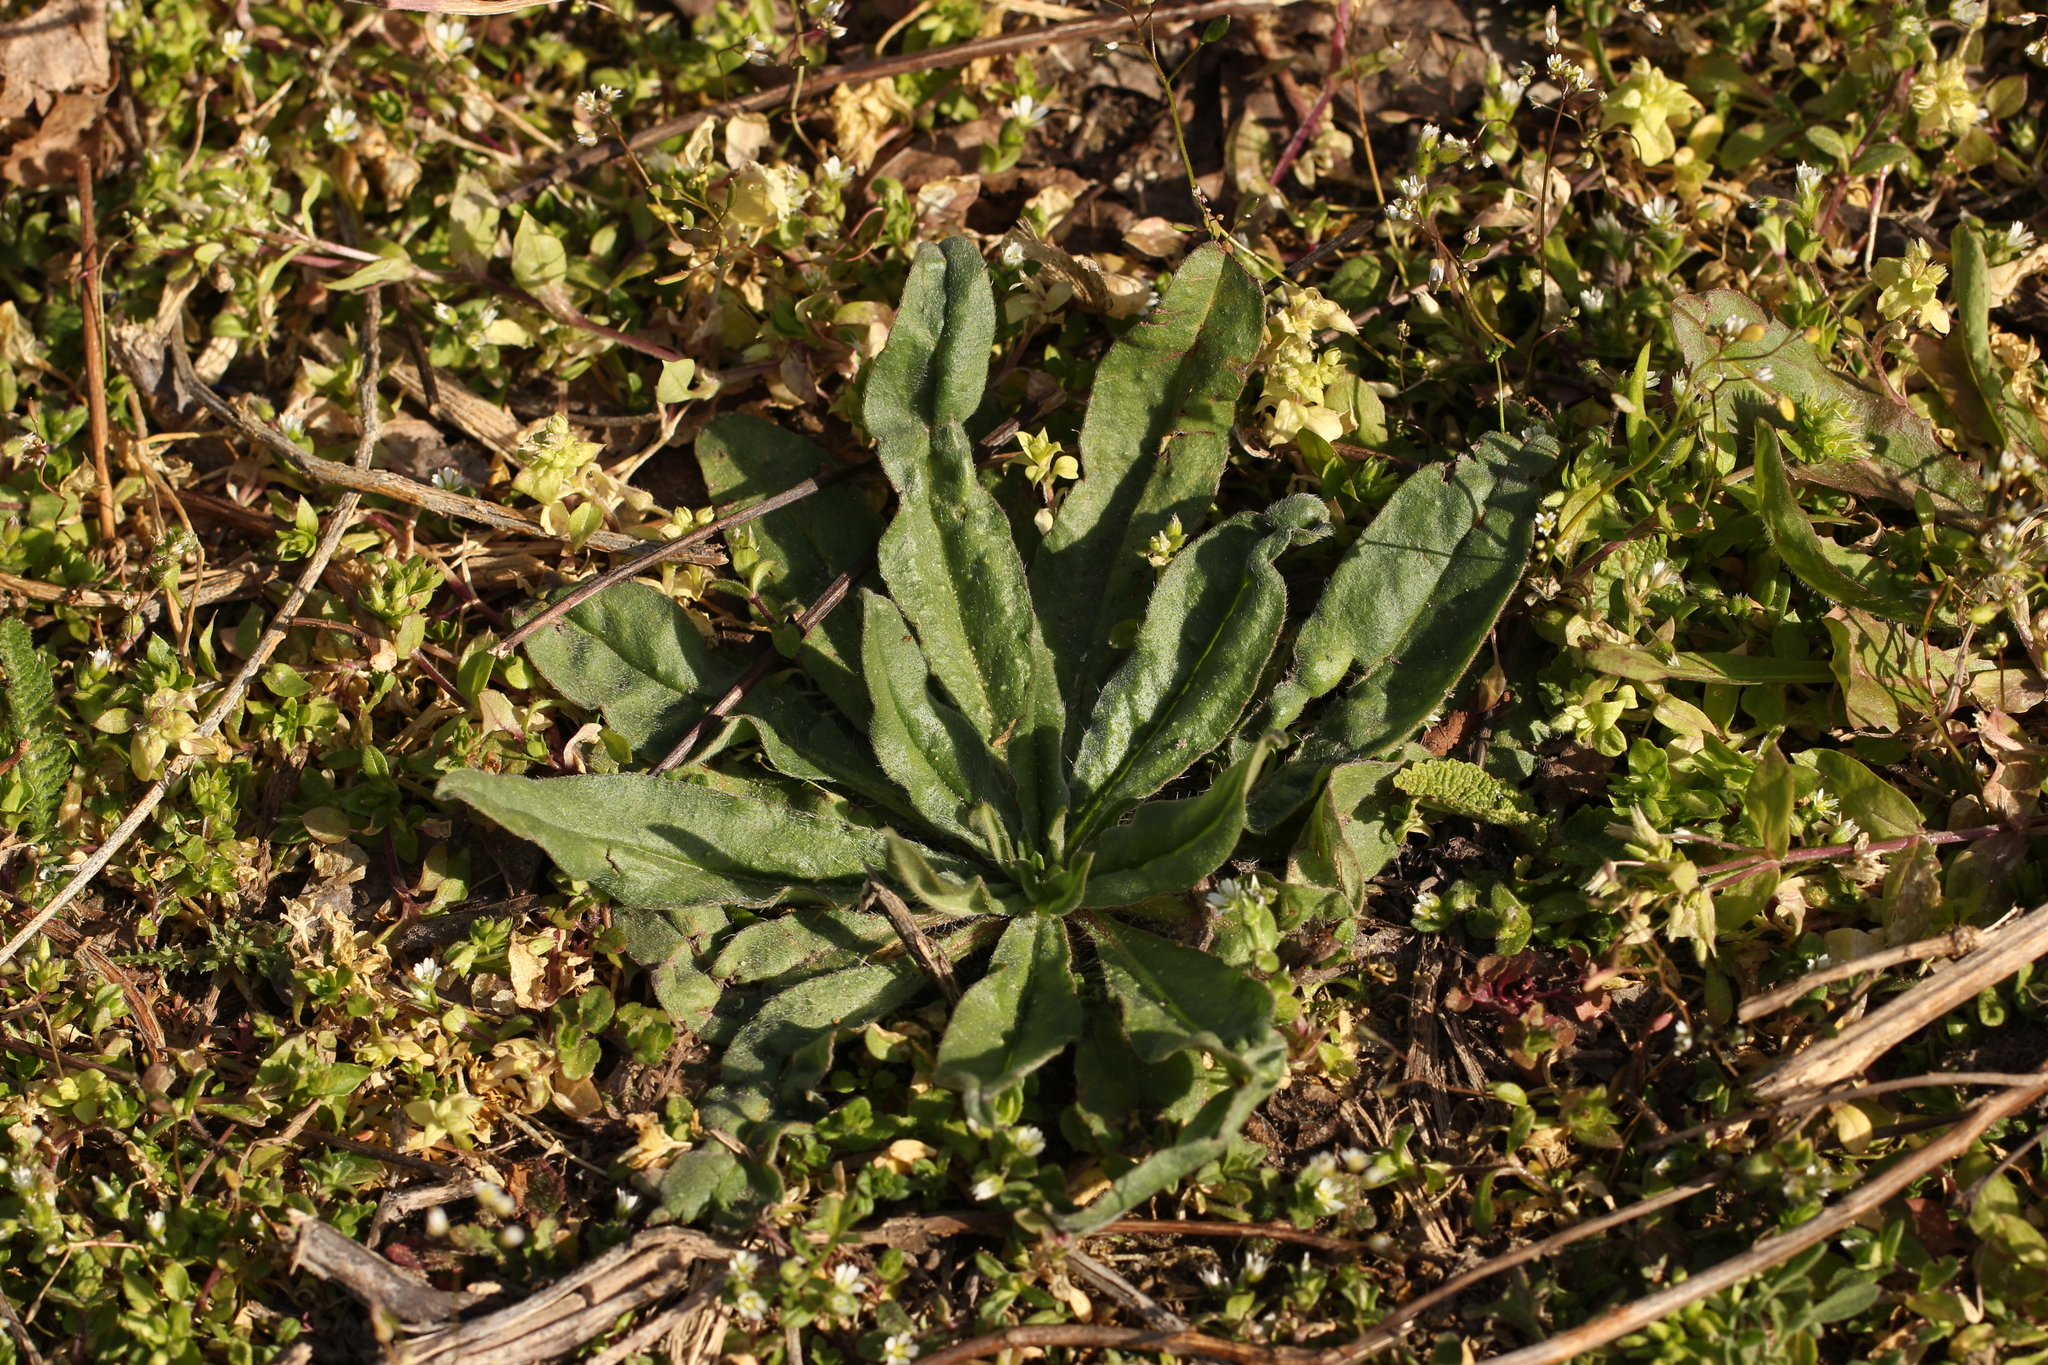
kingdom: Plantae
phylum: Tracheophyta
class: Magnoliopsida
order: Boraginales
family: Boraginaceae
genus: Echium
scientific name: Echium vulgare
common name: Common viper's bugloss
